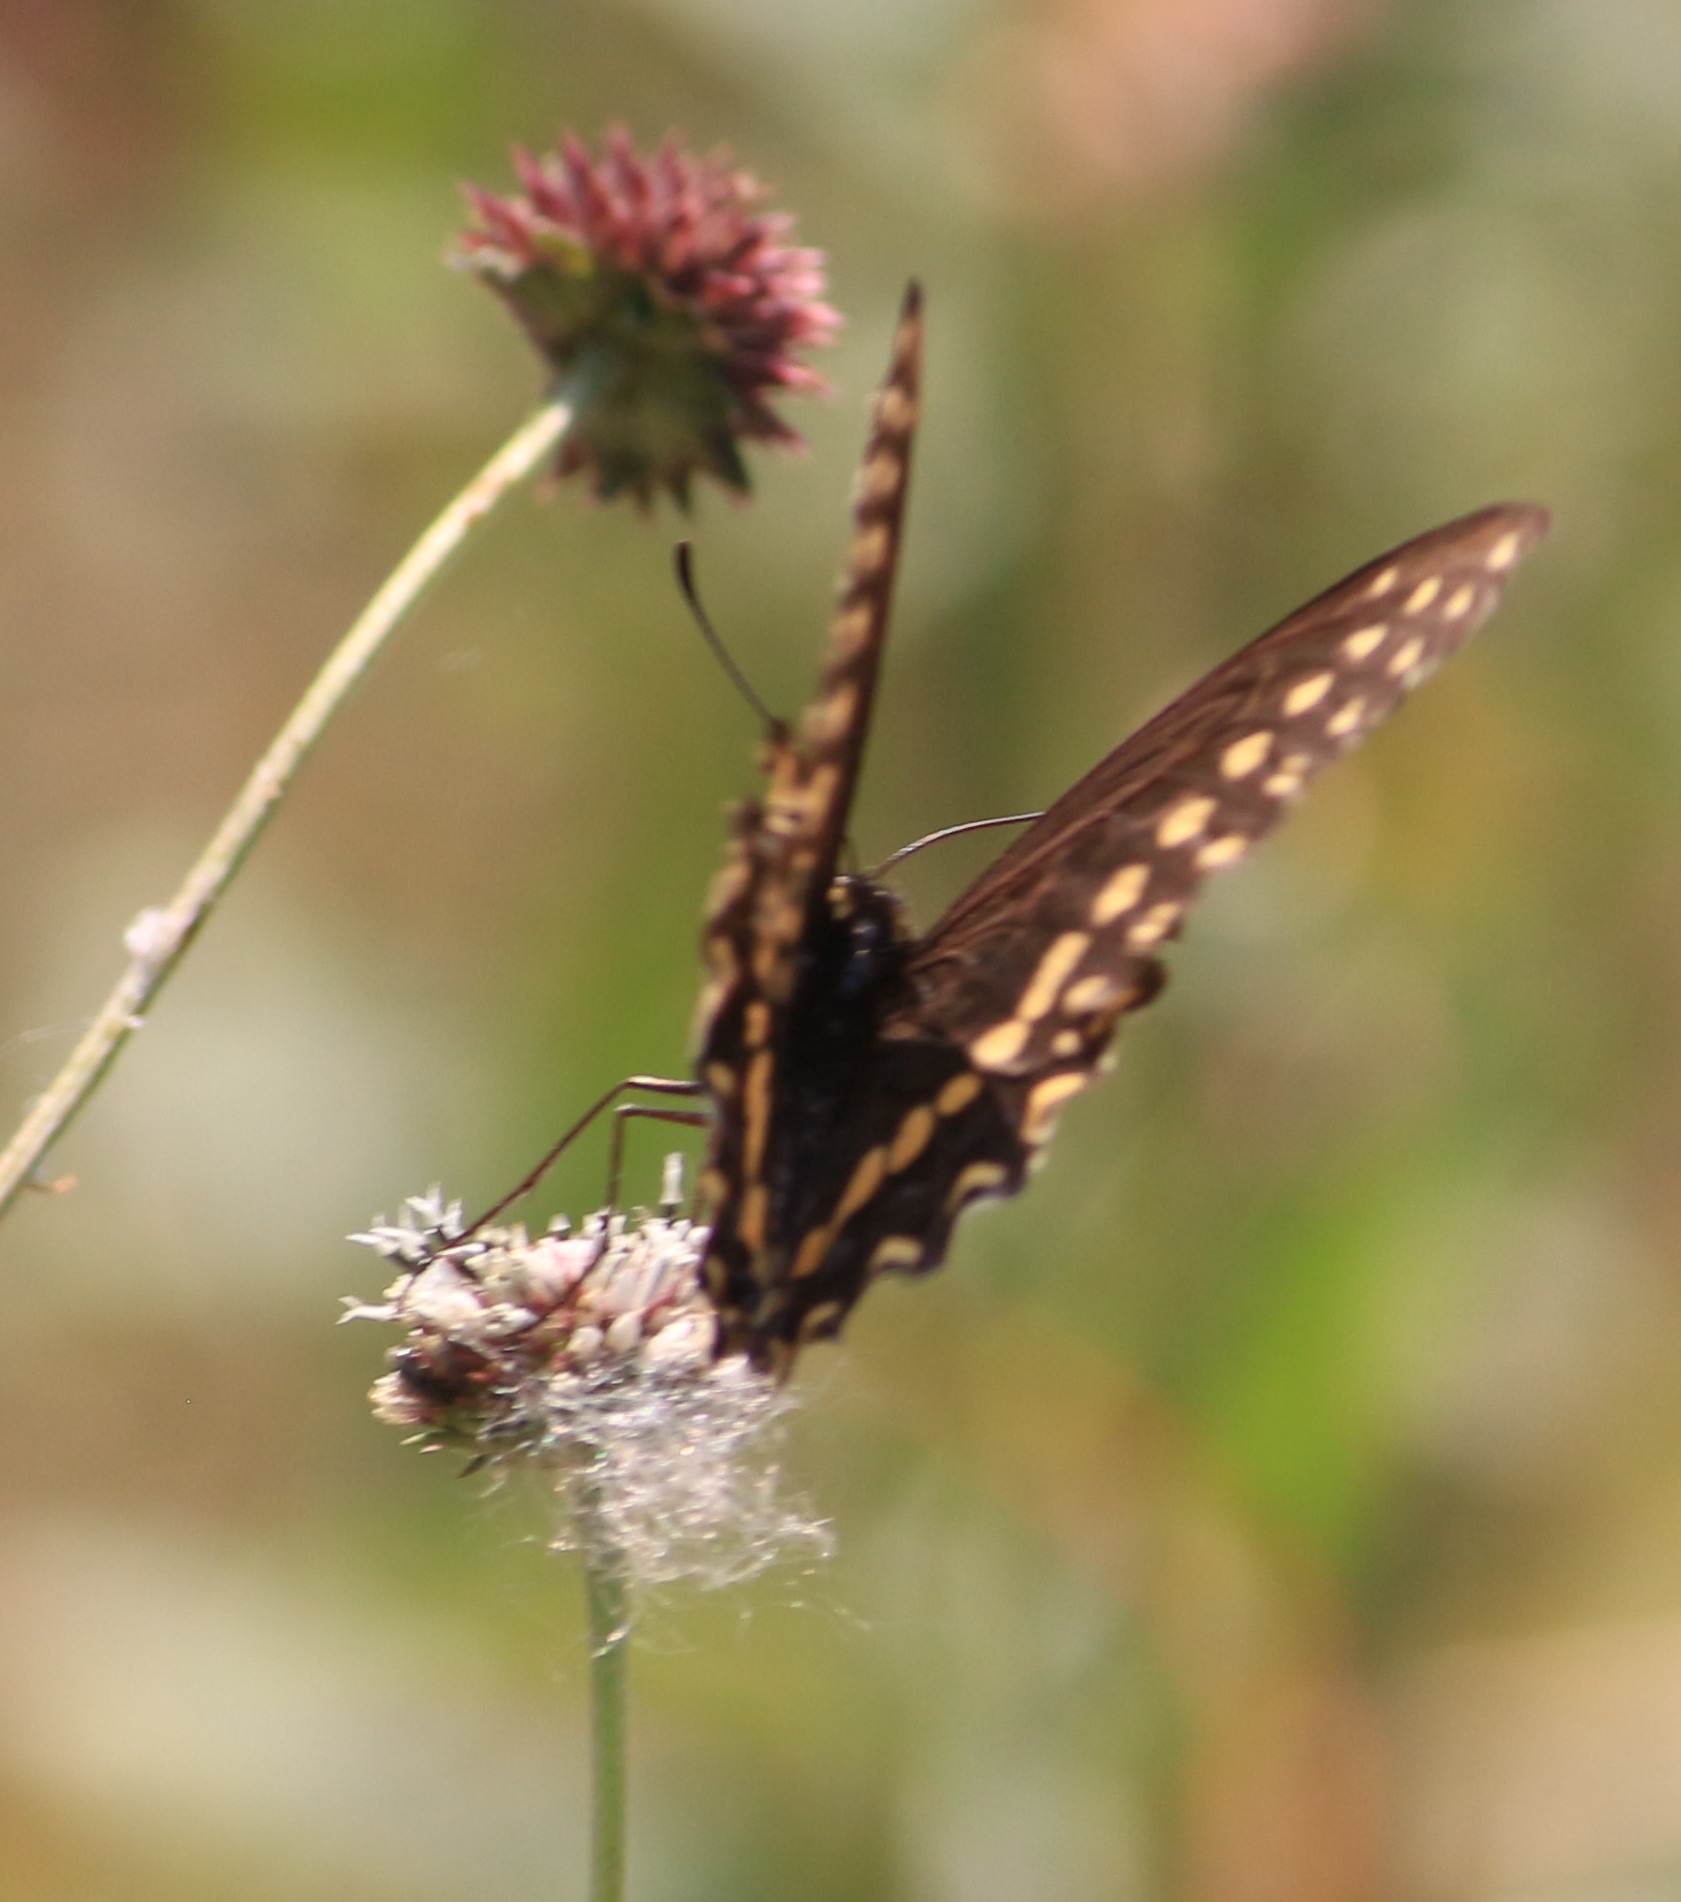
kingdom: Animalia
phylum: Arthropoda
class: Insecta
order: Lepidoptera
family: Papilionidae
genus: Papilio
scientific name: Papilio polyxenes
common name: Black swallowtail
